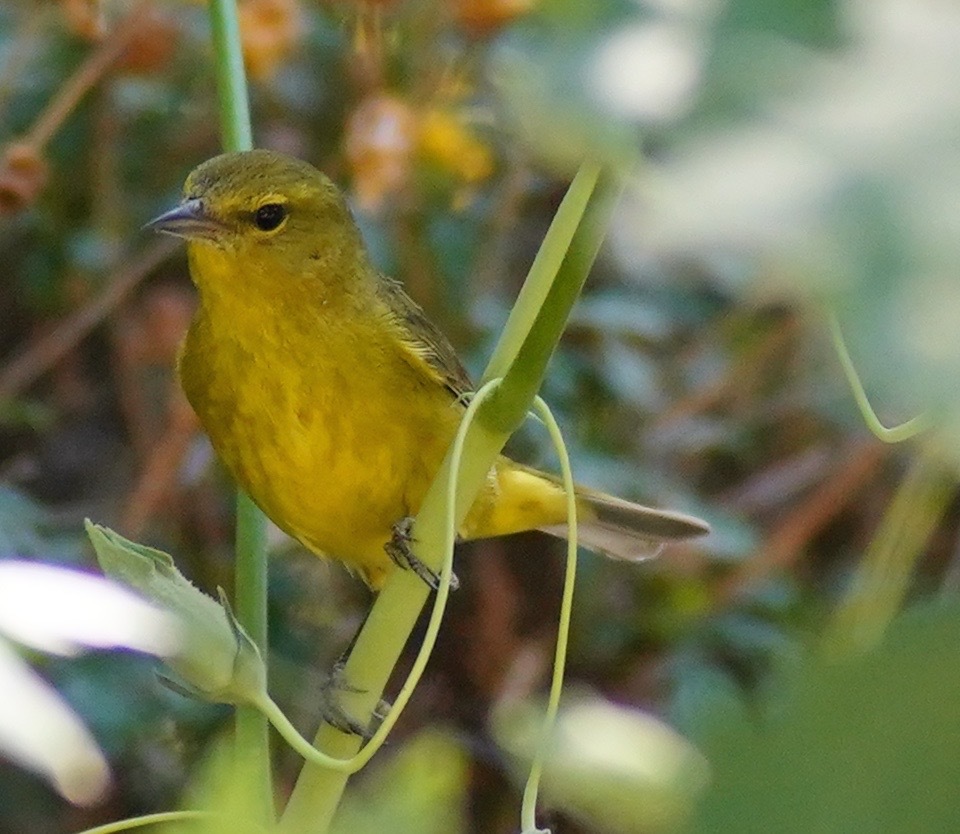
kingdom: Animalia
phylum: Chordata
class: Aves
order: Passeriformes
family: Parulidae
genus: Leiothlypis
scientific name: Leiothlypis celata
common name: Orange-crowned warbler
